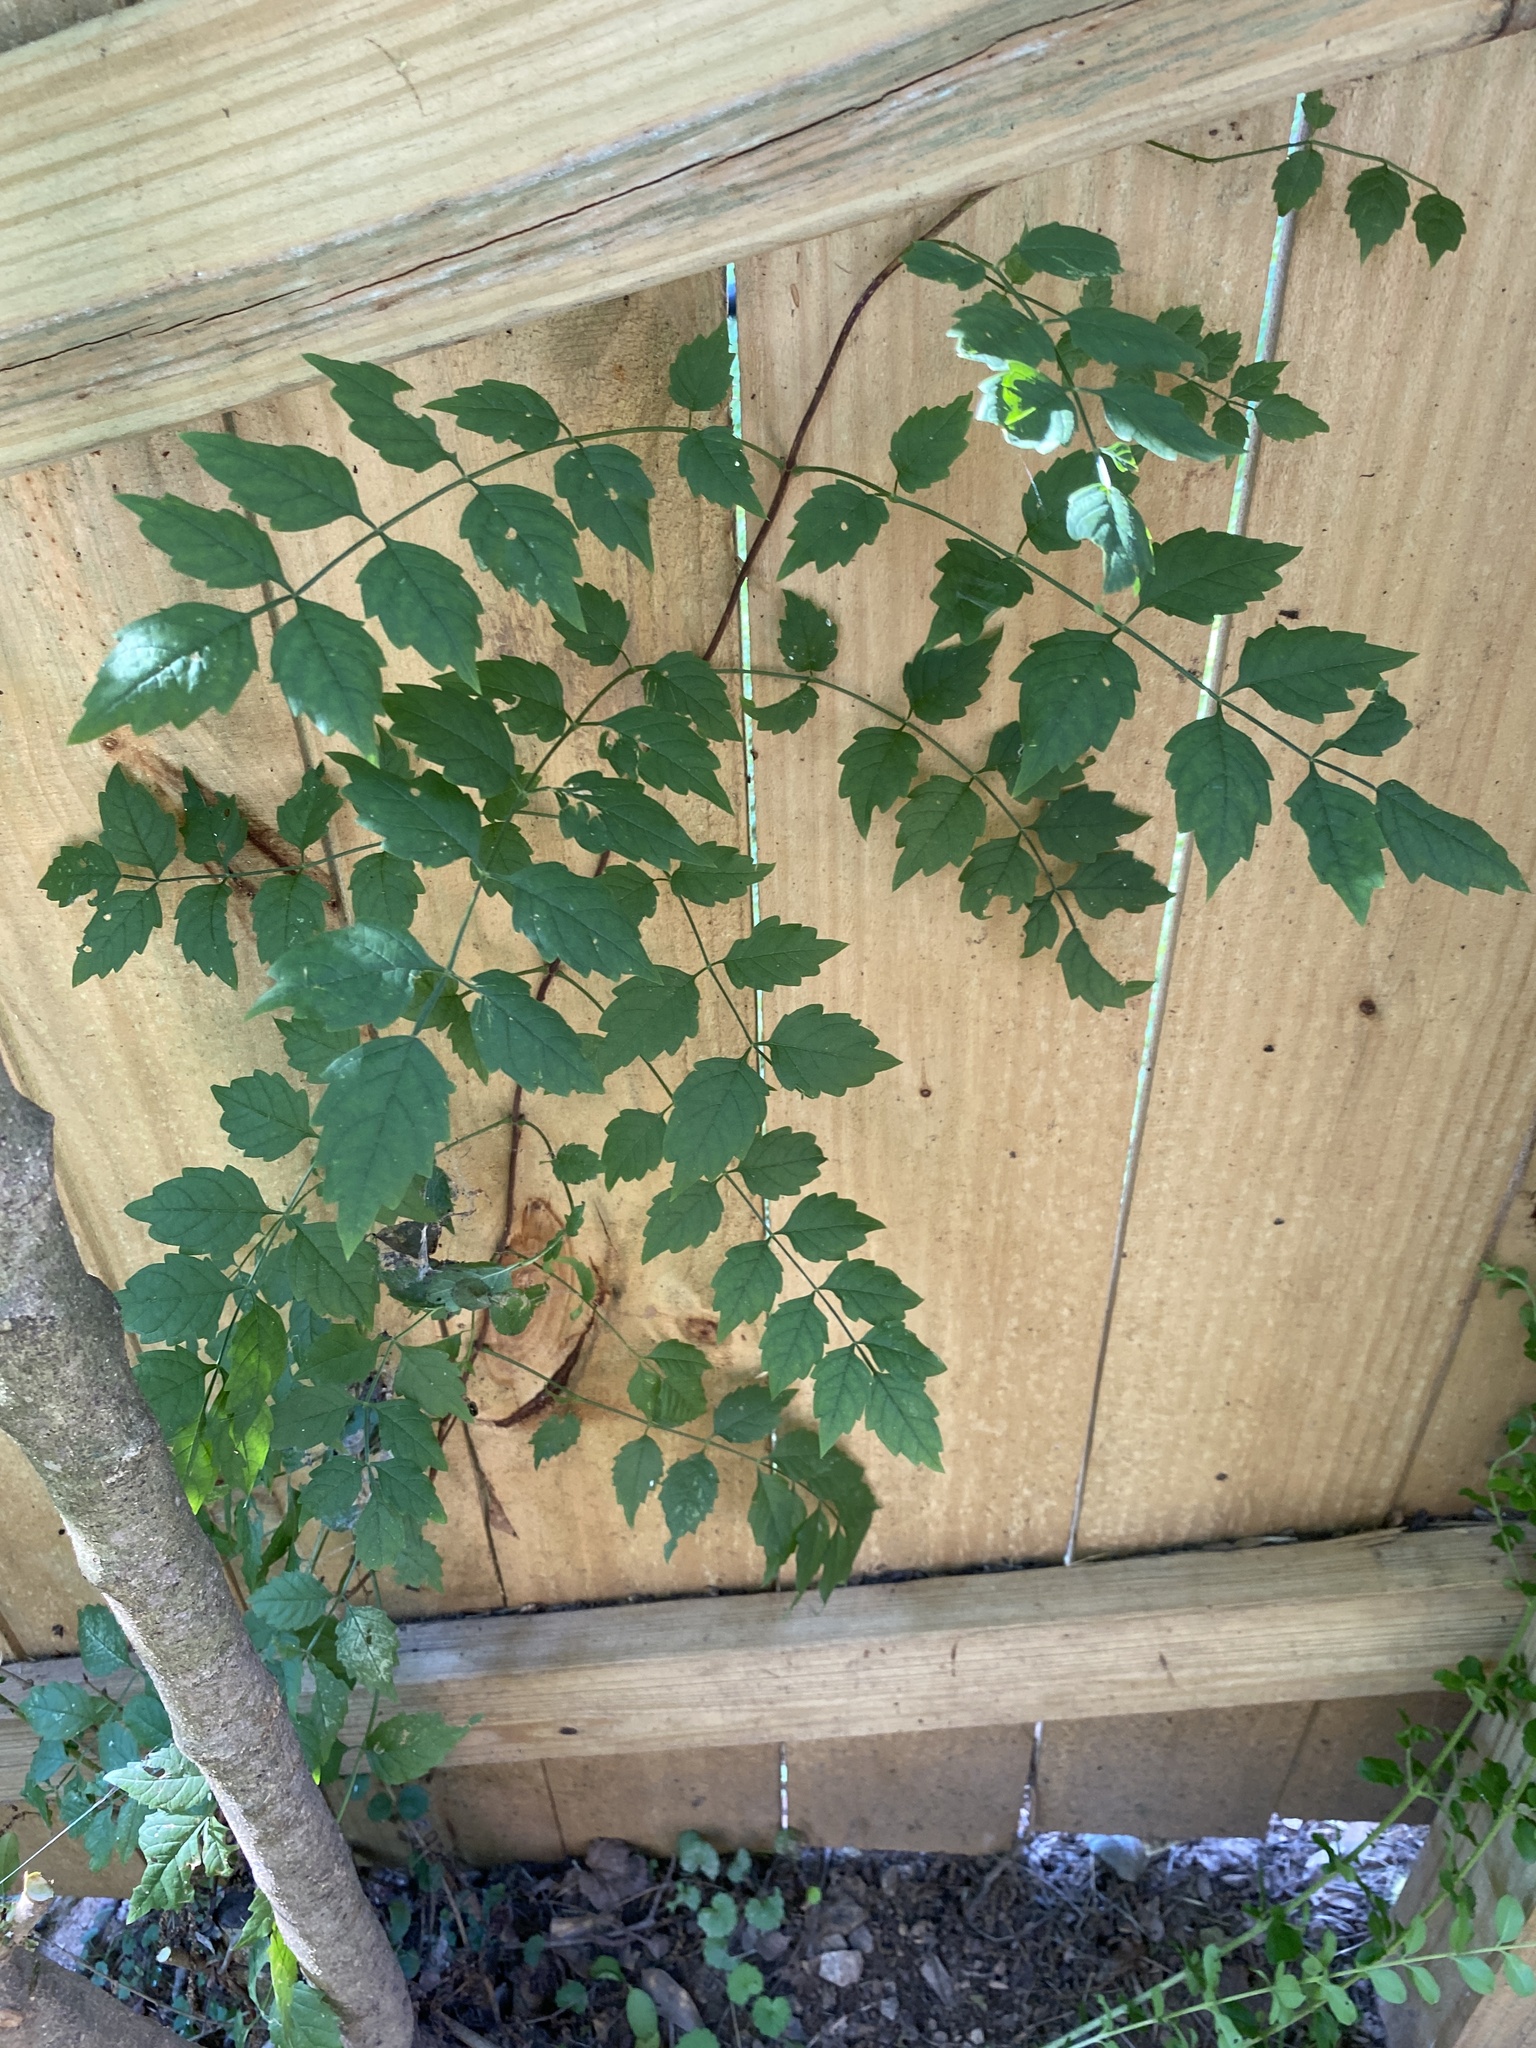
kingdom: Plantae
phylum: Tracheophyta
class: Magnoliopsida
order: Lamiales
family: Bignoniaceae
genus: Campsis
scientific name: Campsis radicans
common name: Trumpet-creeper
